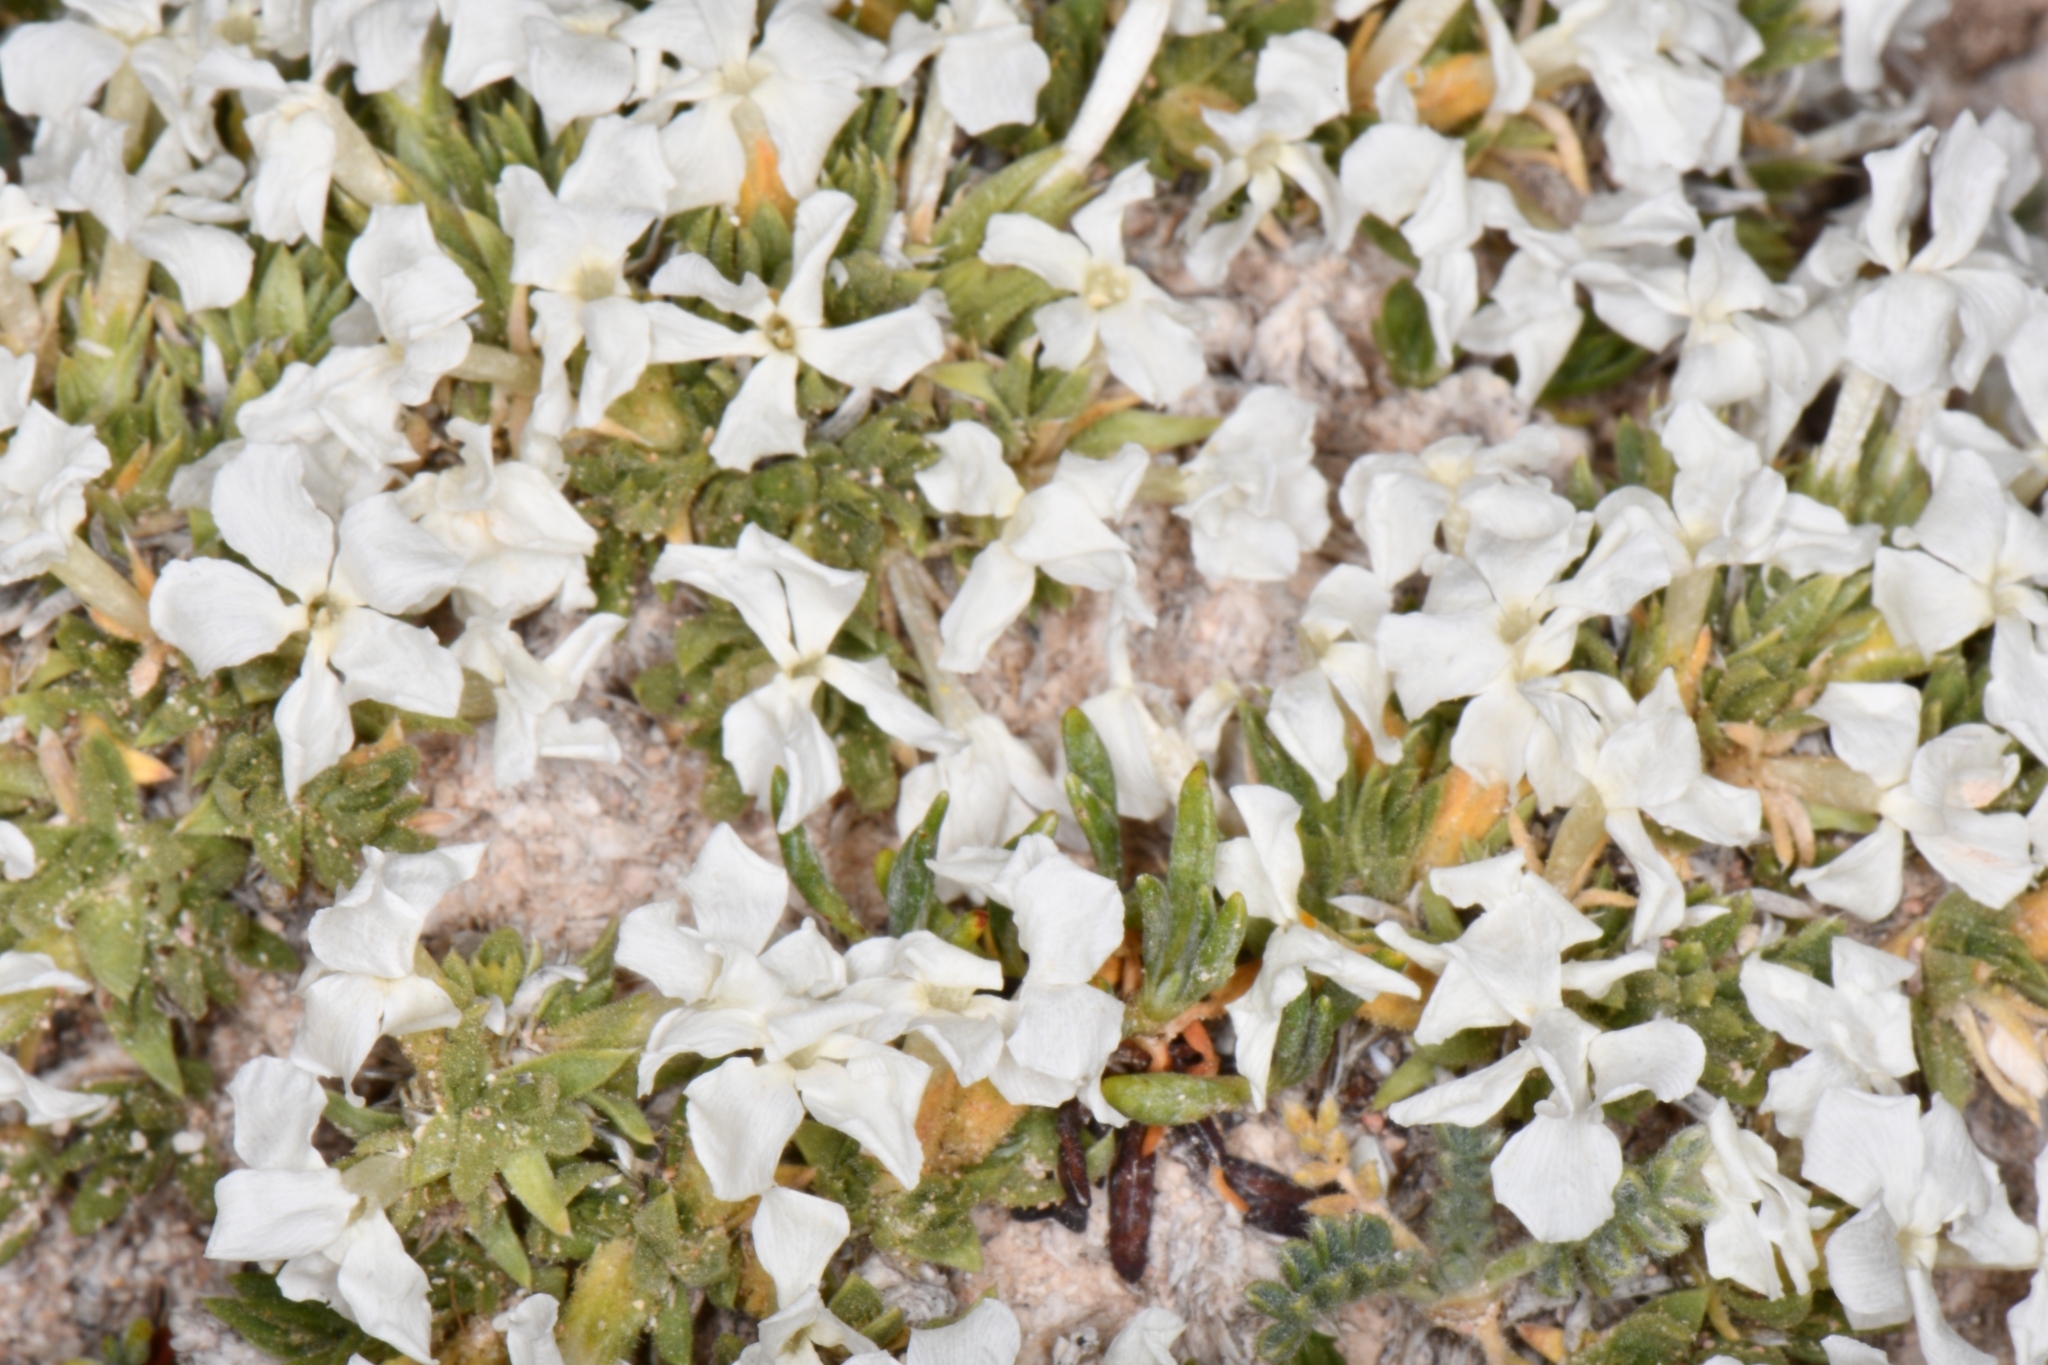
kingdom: Plantae
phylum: Tracheophyta
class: Magnoliopsida
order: Ericales
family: Polemoniaceae
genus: Phlox
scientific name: Phlox pulvinata
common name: Cushion phlox
